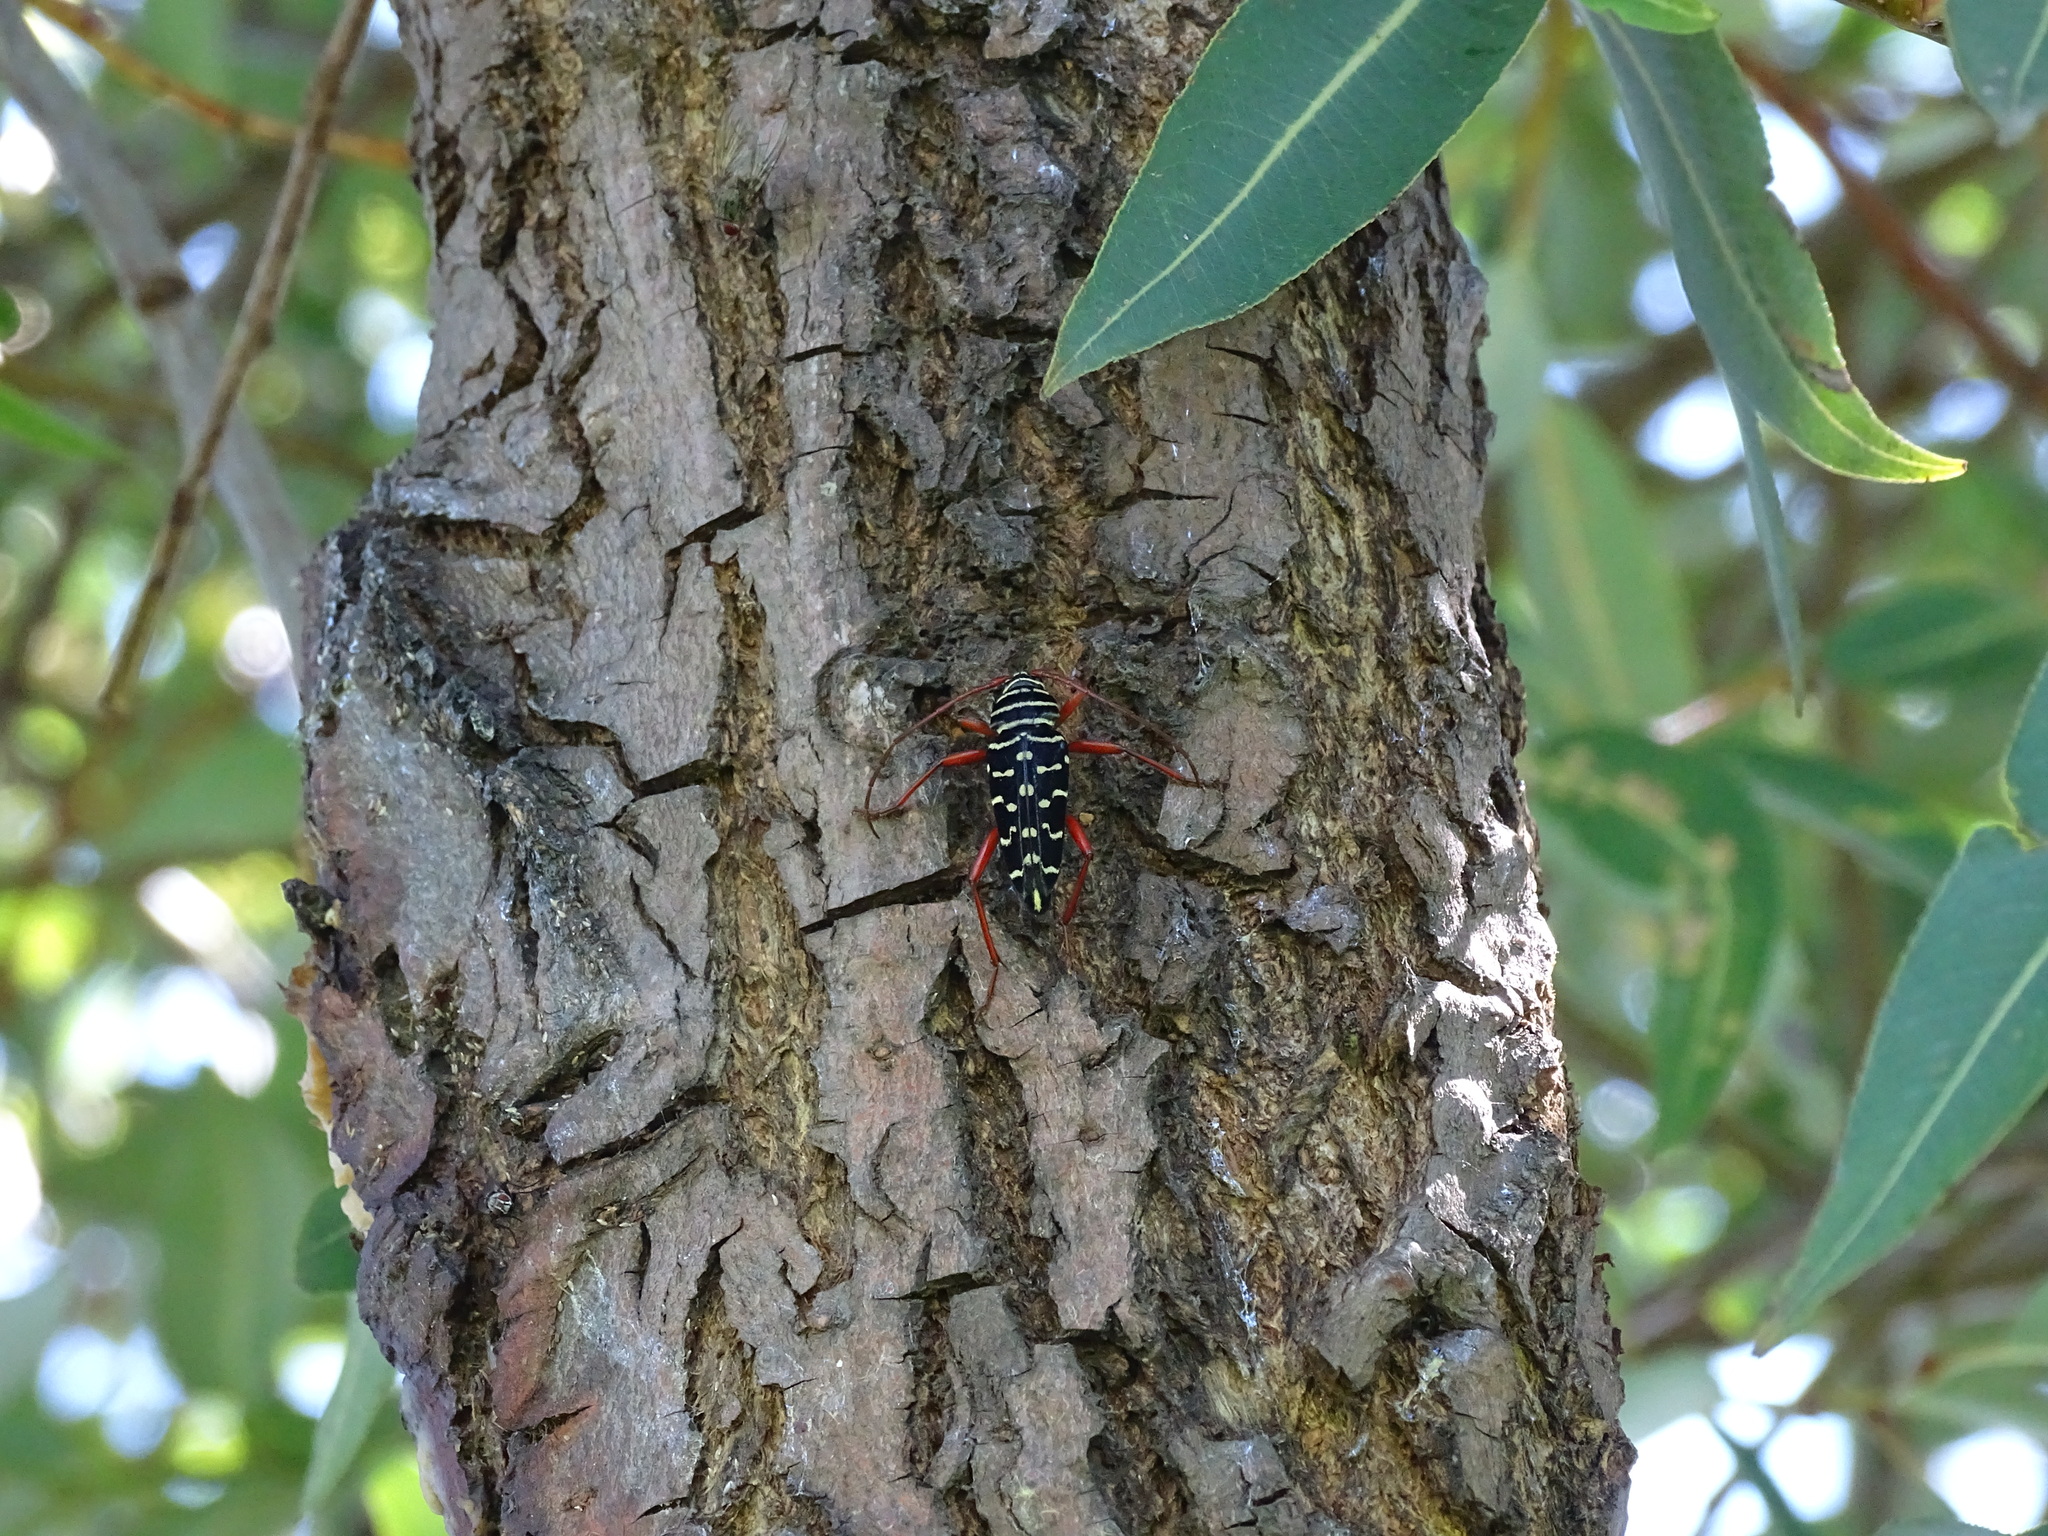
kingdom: Animalia
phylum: Arthropoda
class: Insecta
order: Coleoptera
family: Cerambycidae
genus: Placosternus
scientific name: Placosternus erythropus
